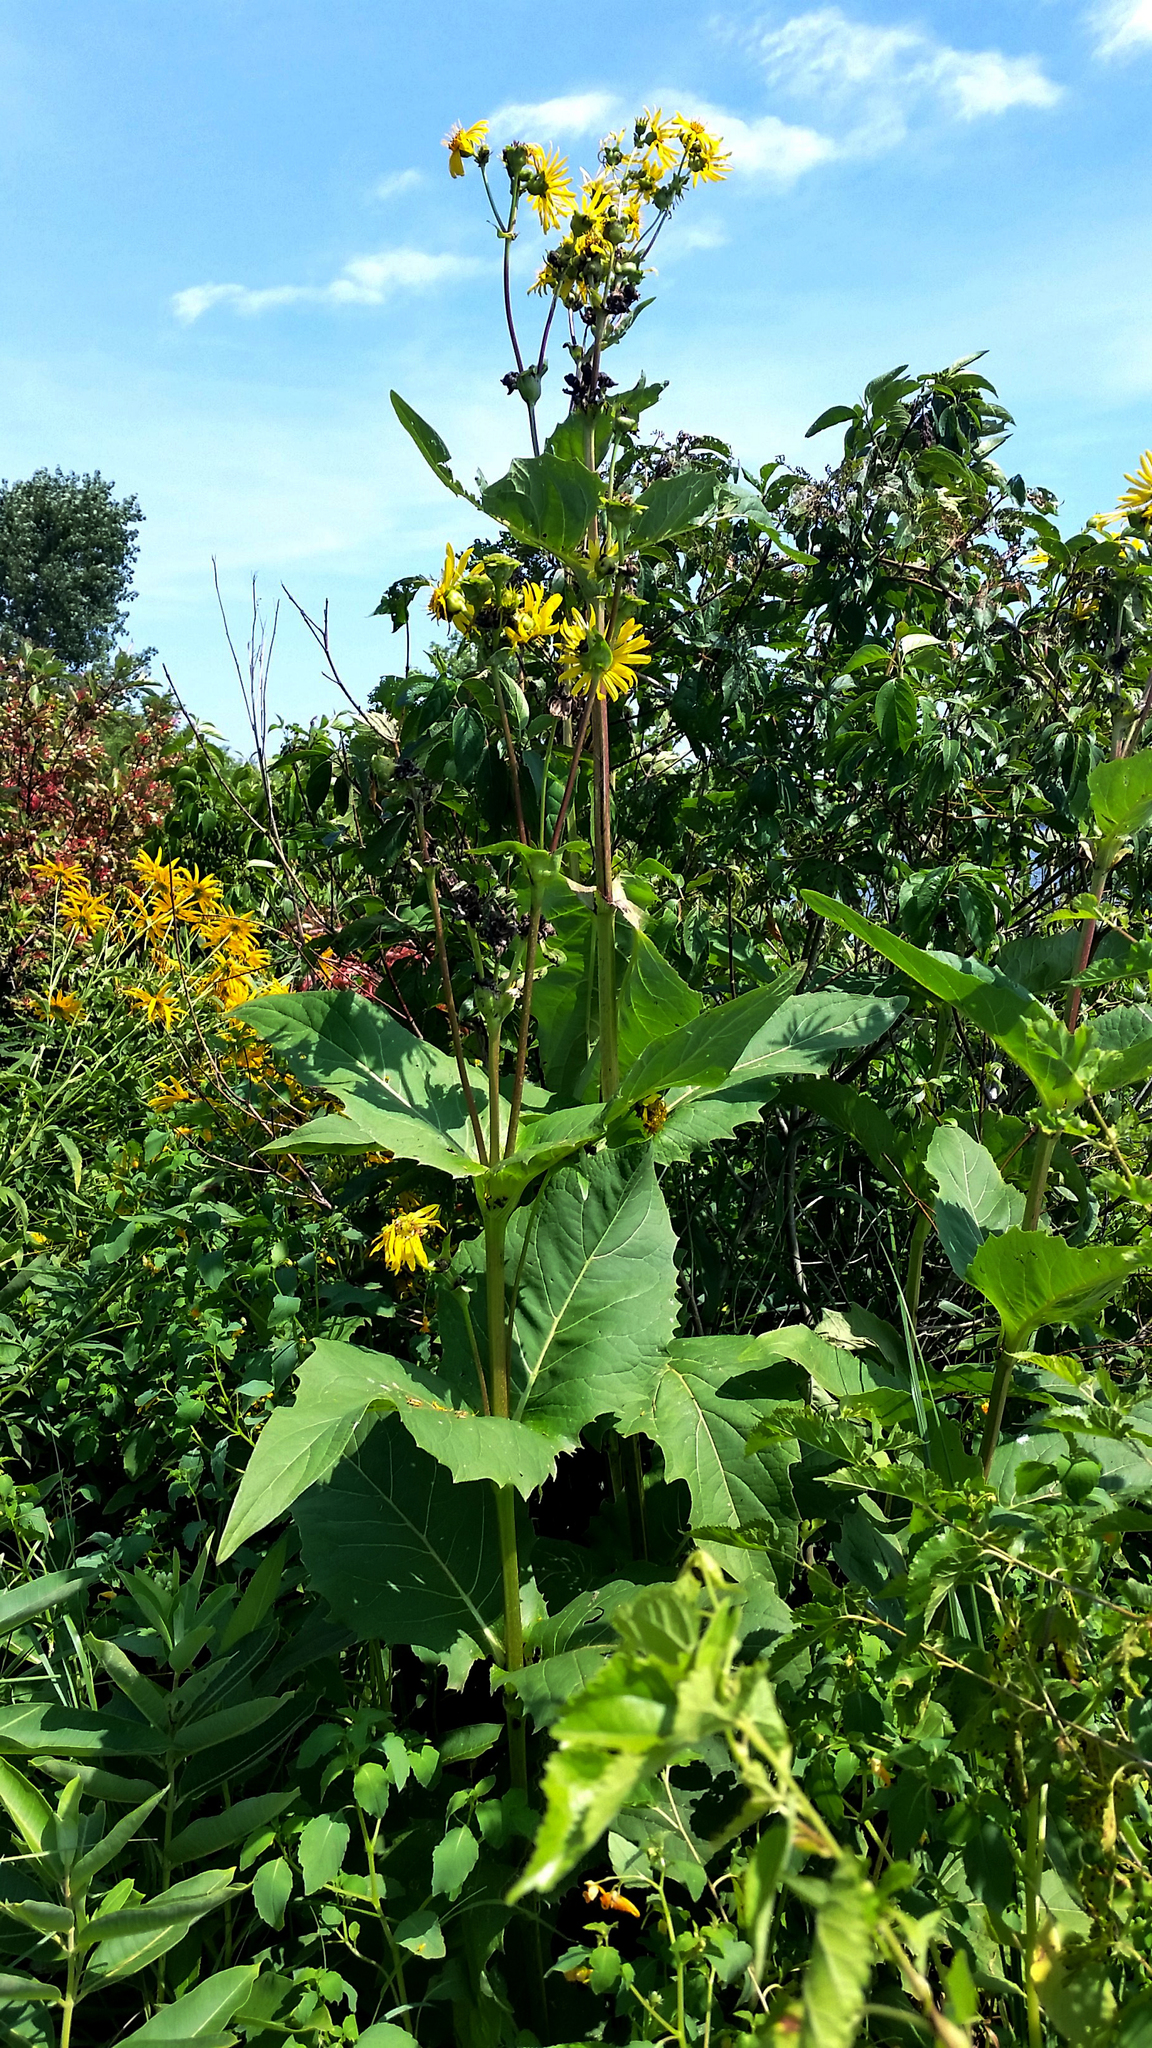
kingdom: Plantae
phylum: Tracheophyta
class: Magnoliopsida
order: Asterales
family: Asteraceae
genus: Silphium
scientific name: Silphium perfoliatum
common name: Cup-plant
